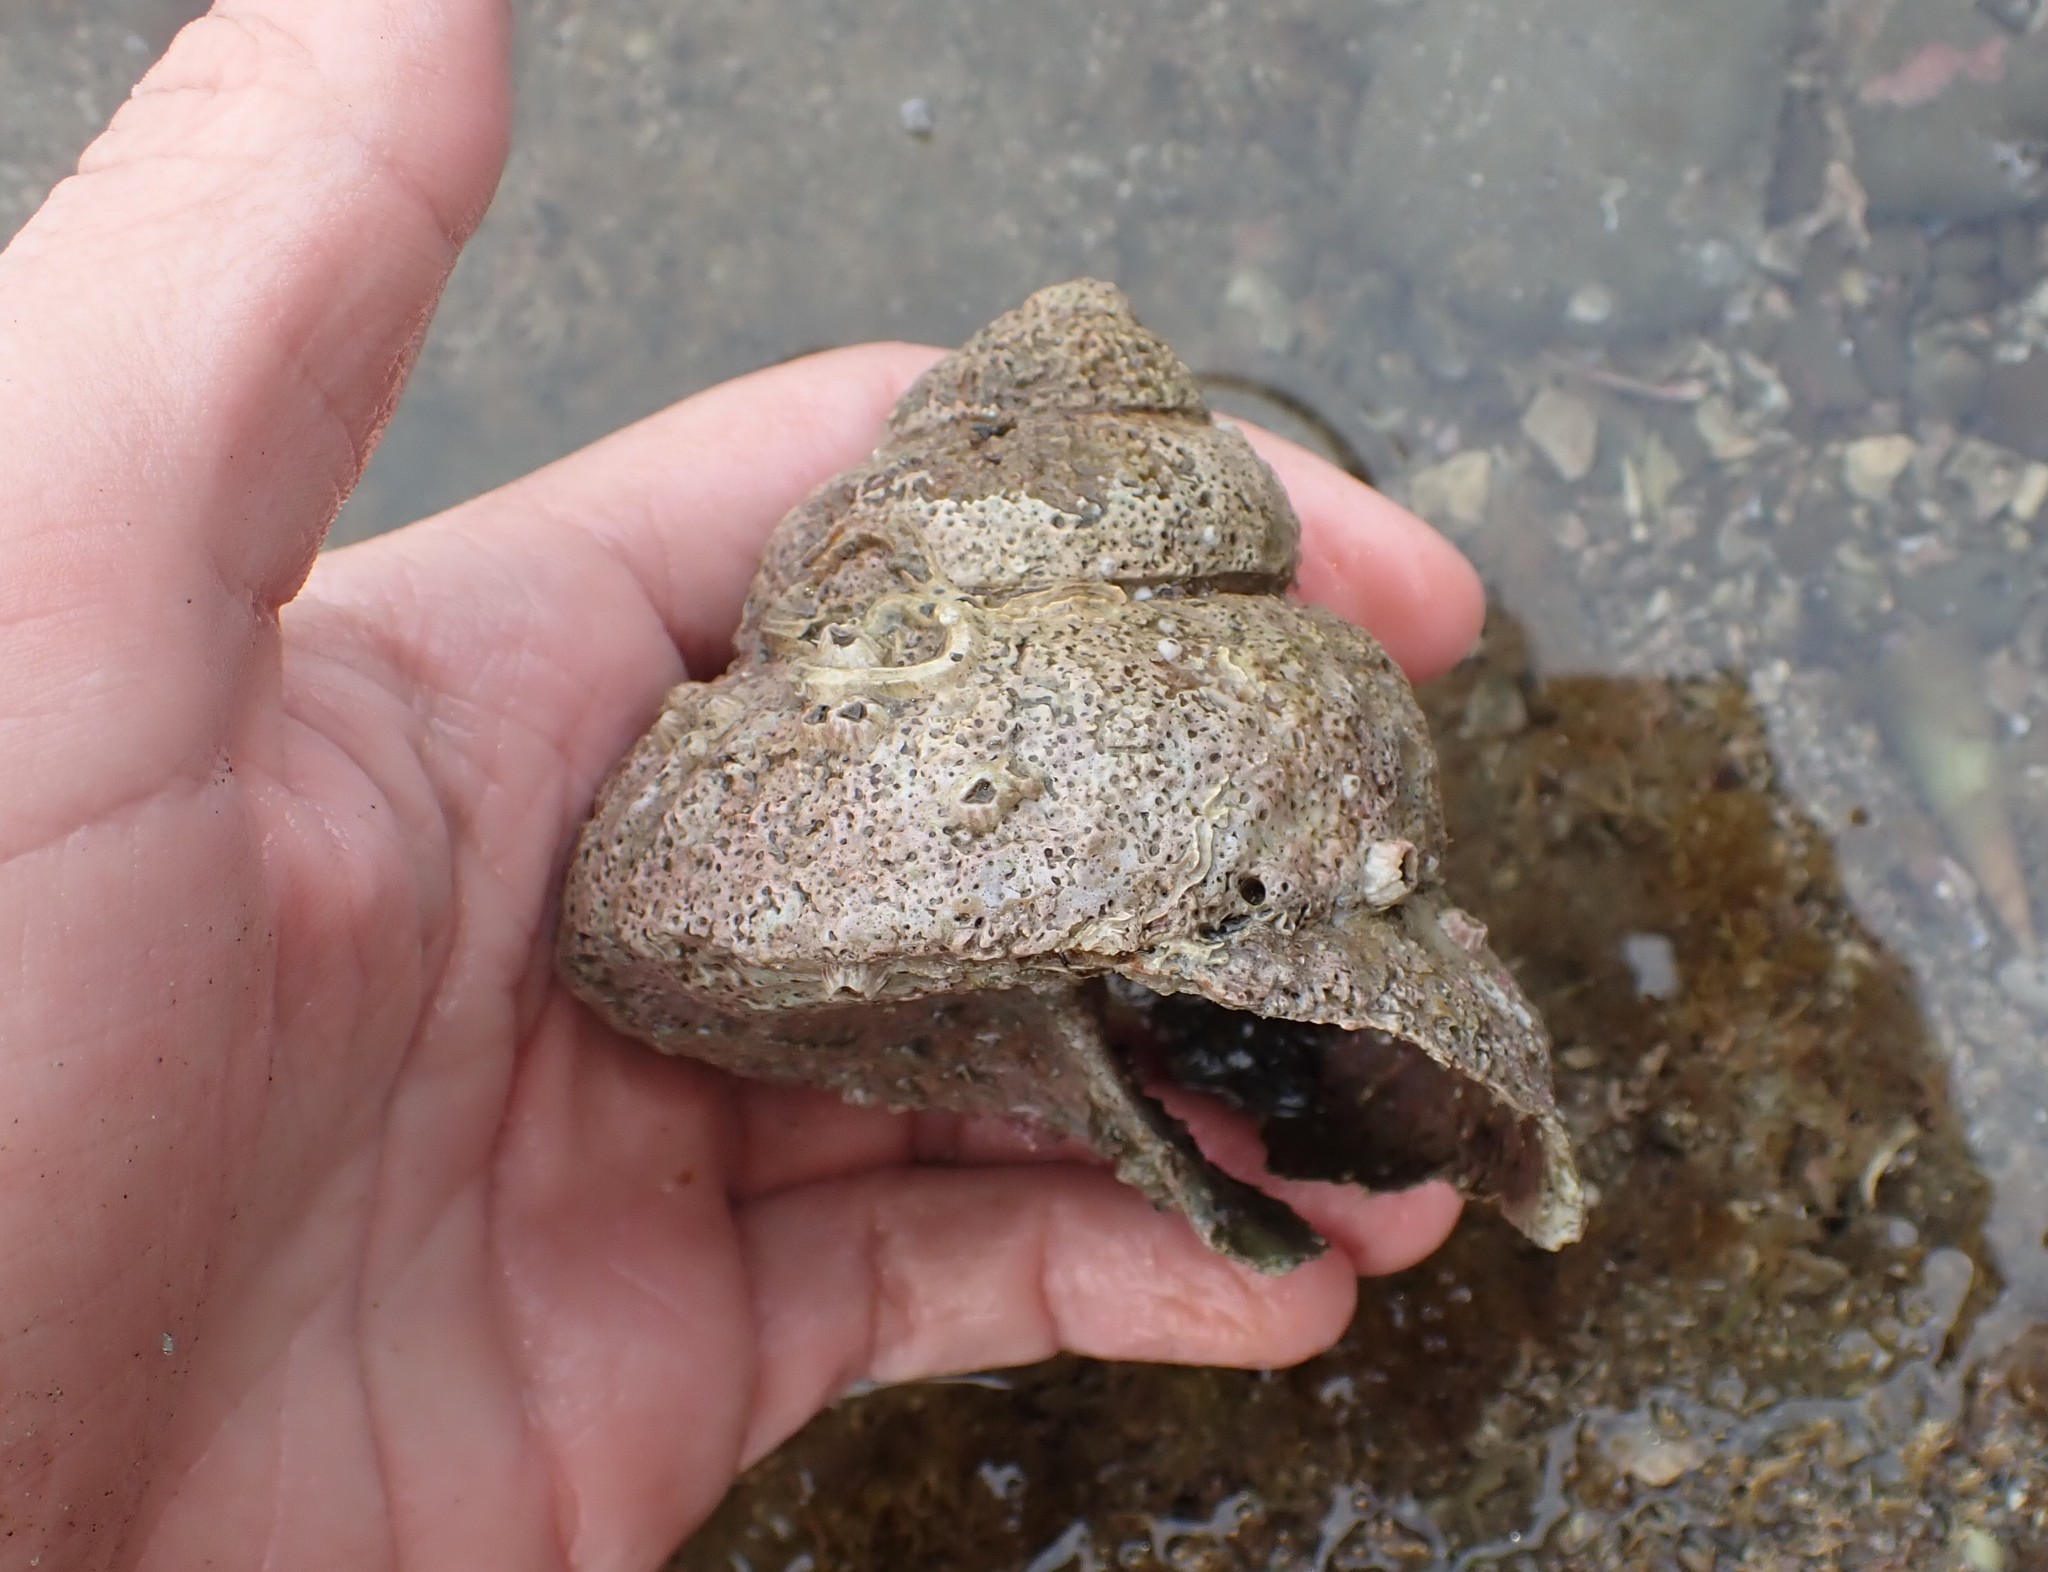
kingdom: Animalia
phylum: Mollusca
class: Gastropoda
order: Trochida
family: Turbinidae
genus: Cookia
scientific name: Cookia sulcata
